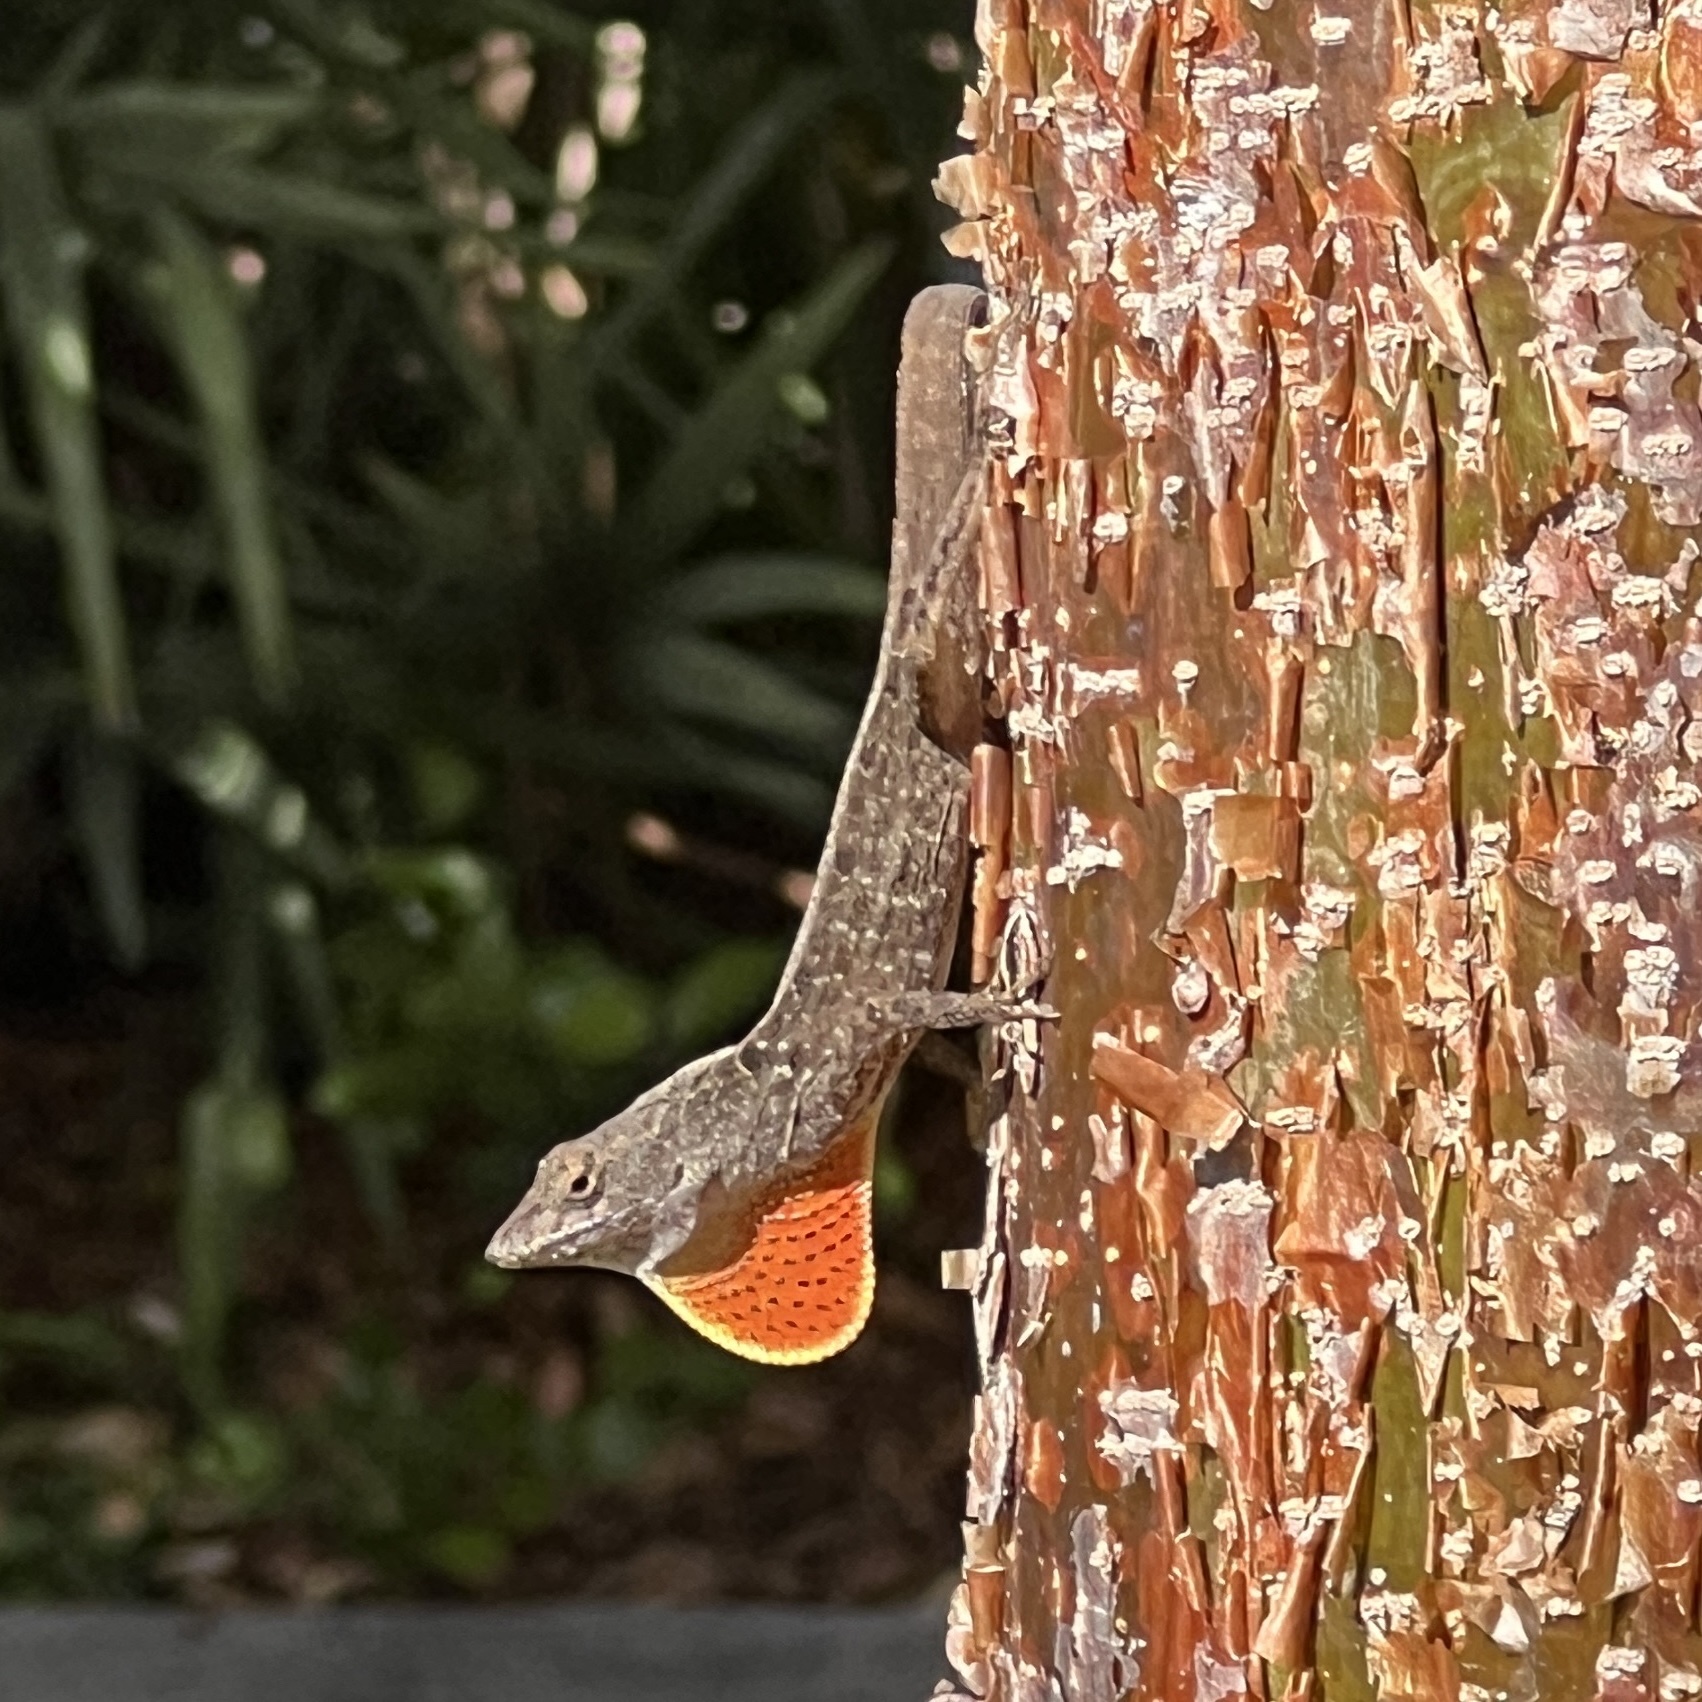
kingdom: Animalia
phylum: Chordata
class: Squamata
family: Dactyloidae
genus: Anolis
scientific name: Anolis sagrei
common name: Brown anole
